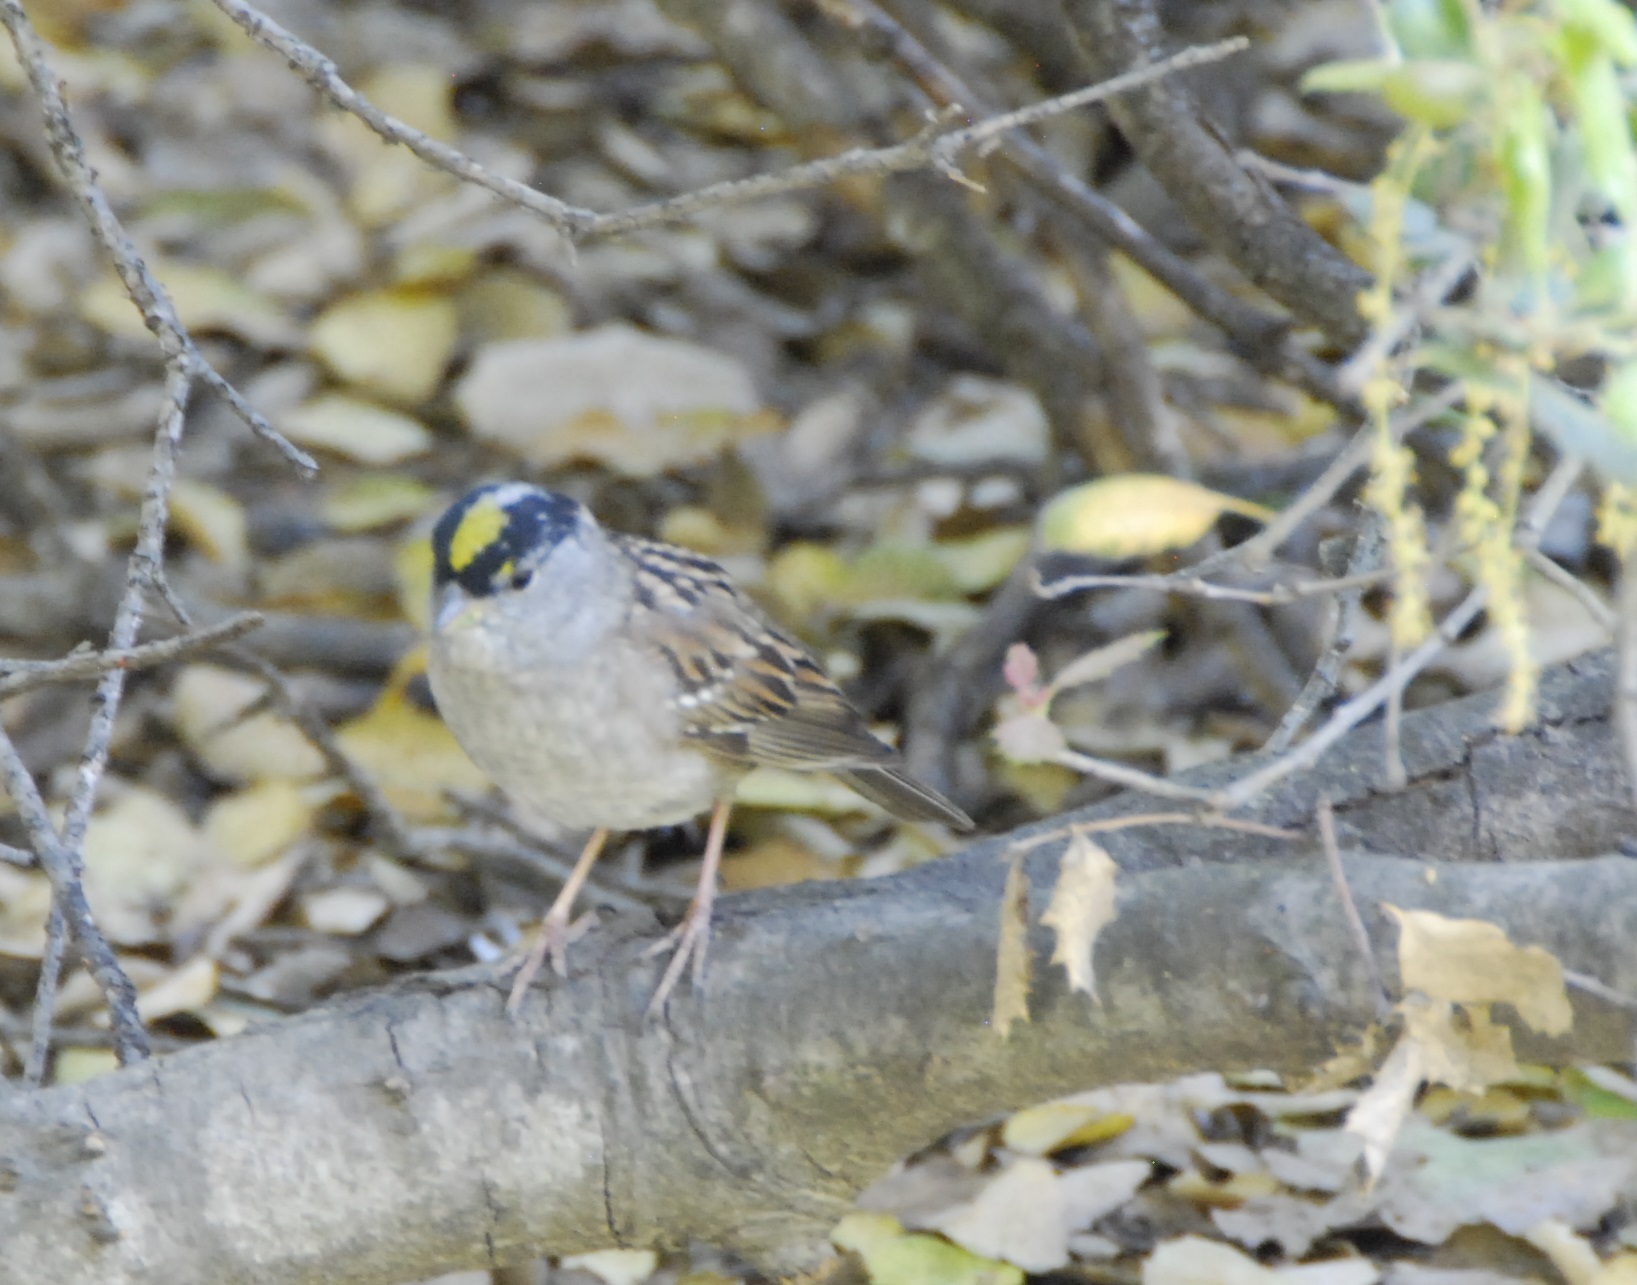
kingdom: Animalia
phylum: Chordata
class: Aves
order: Passeriformes
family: Passerellidae
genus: Zonotrichia
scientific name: Zonotrichia atricapilla
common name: Golden-crowned sparrow
